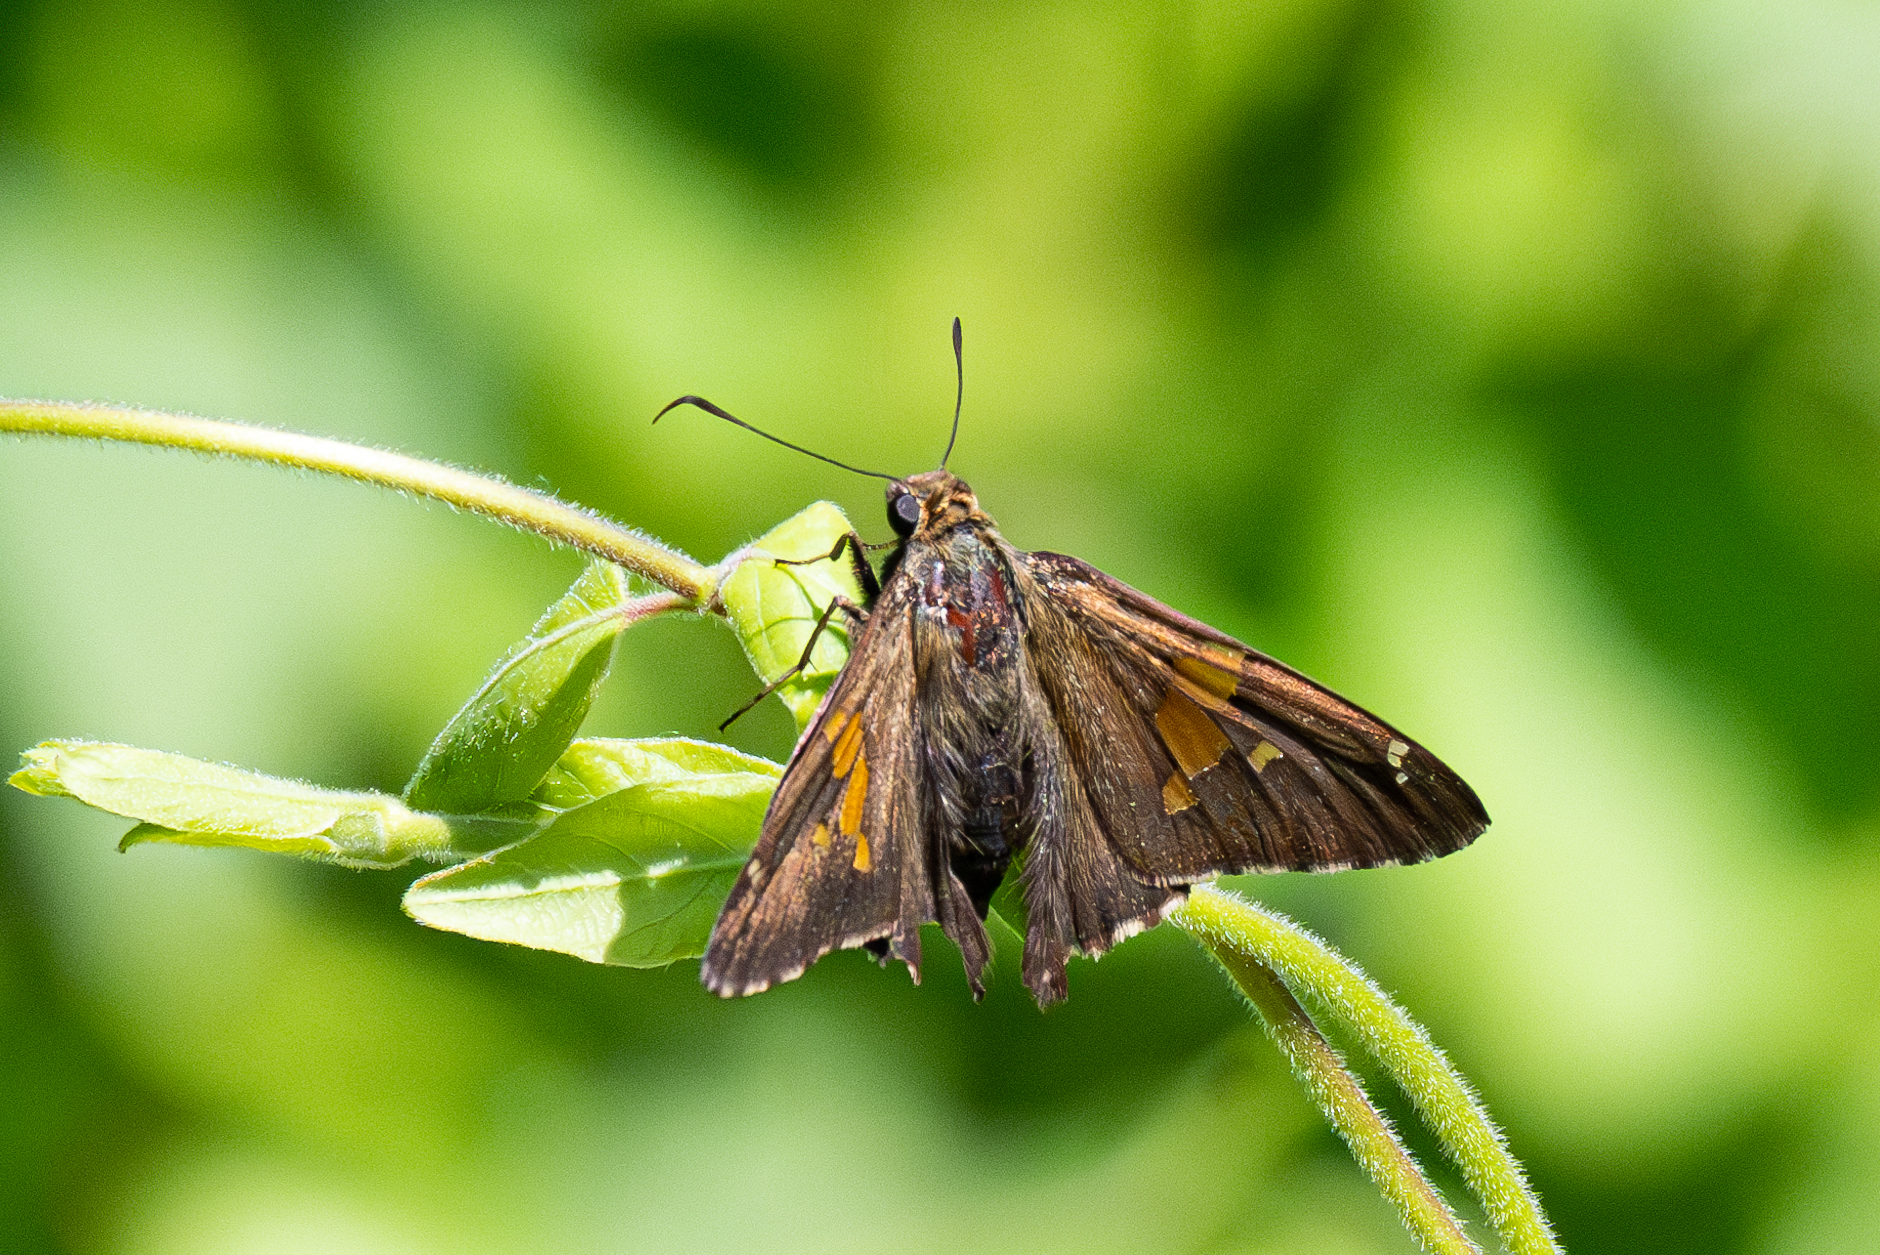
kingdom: Animalia
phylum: Arthropoda
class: Insecta
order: Lepidoptera
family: Hesperiidae
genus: Epargyreus
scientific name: Epargyreus clarus
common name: Silver-spotted skipper
